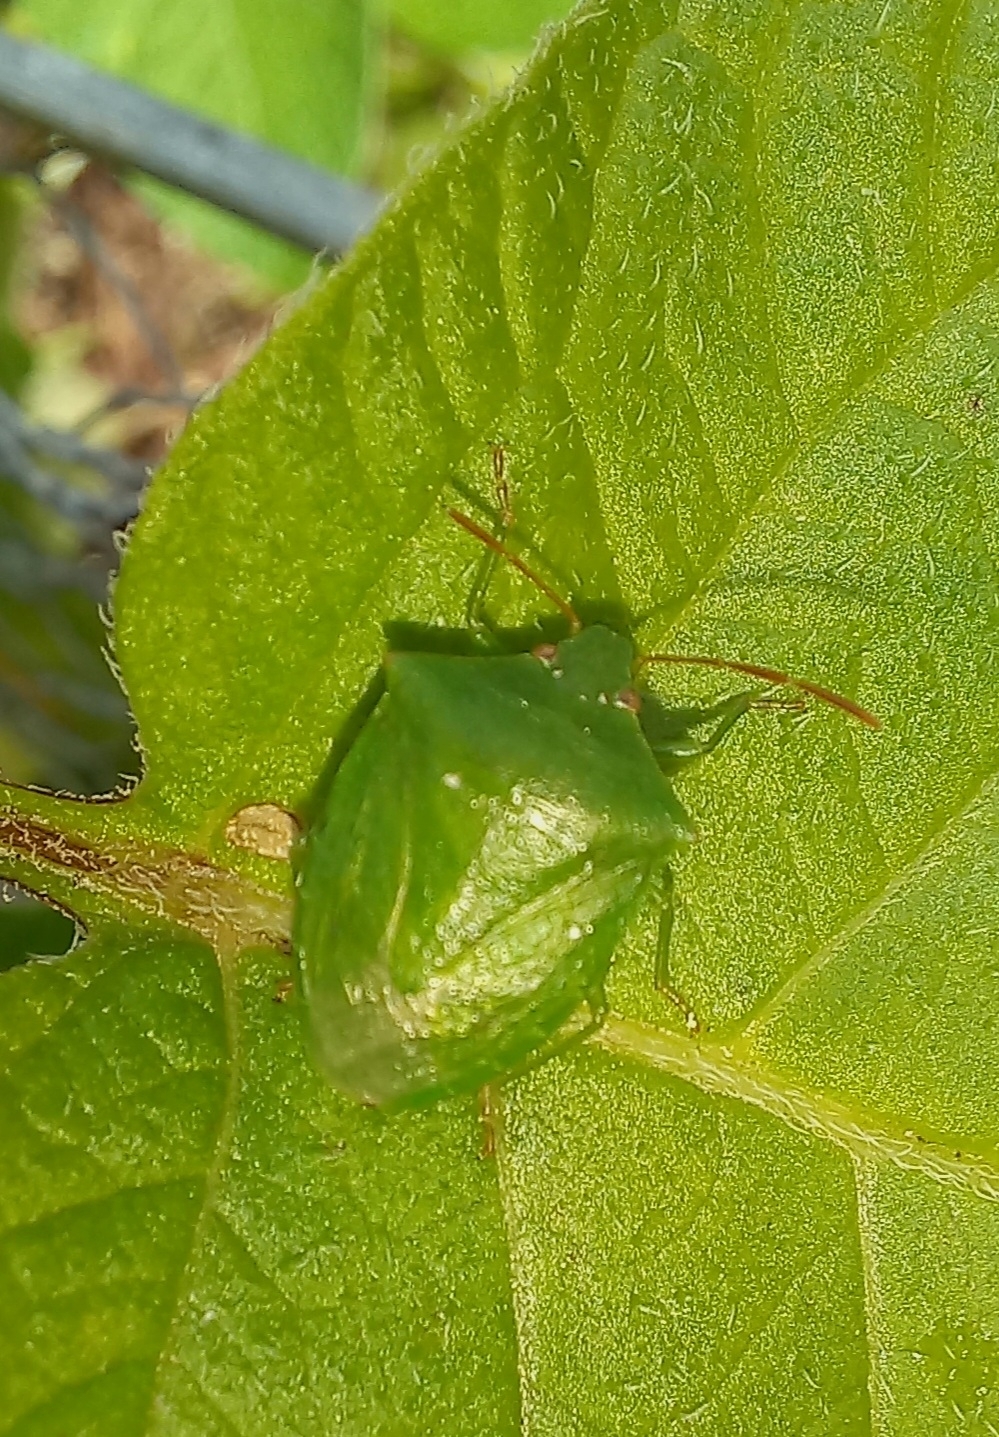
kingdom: Animalia
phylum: Arthropoda
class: Insecta
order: Hemiptera
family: Pentatomidae
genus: Cuspicona
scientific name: Cuspicona simplex
